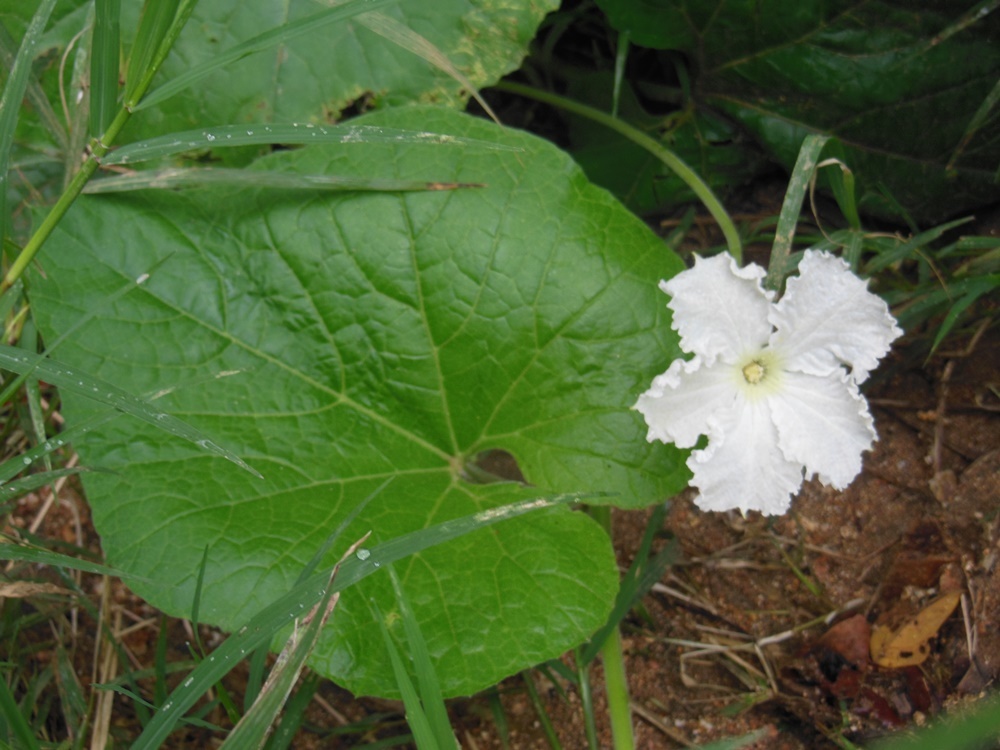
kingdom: Plantae
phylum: Tracheophyta
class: Magnoliopsida
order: Cucurbitales
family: Cucurbitaceae
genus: Lagenaria
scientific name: Lagenaria siceraria
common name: Bottle gourd
